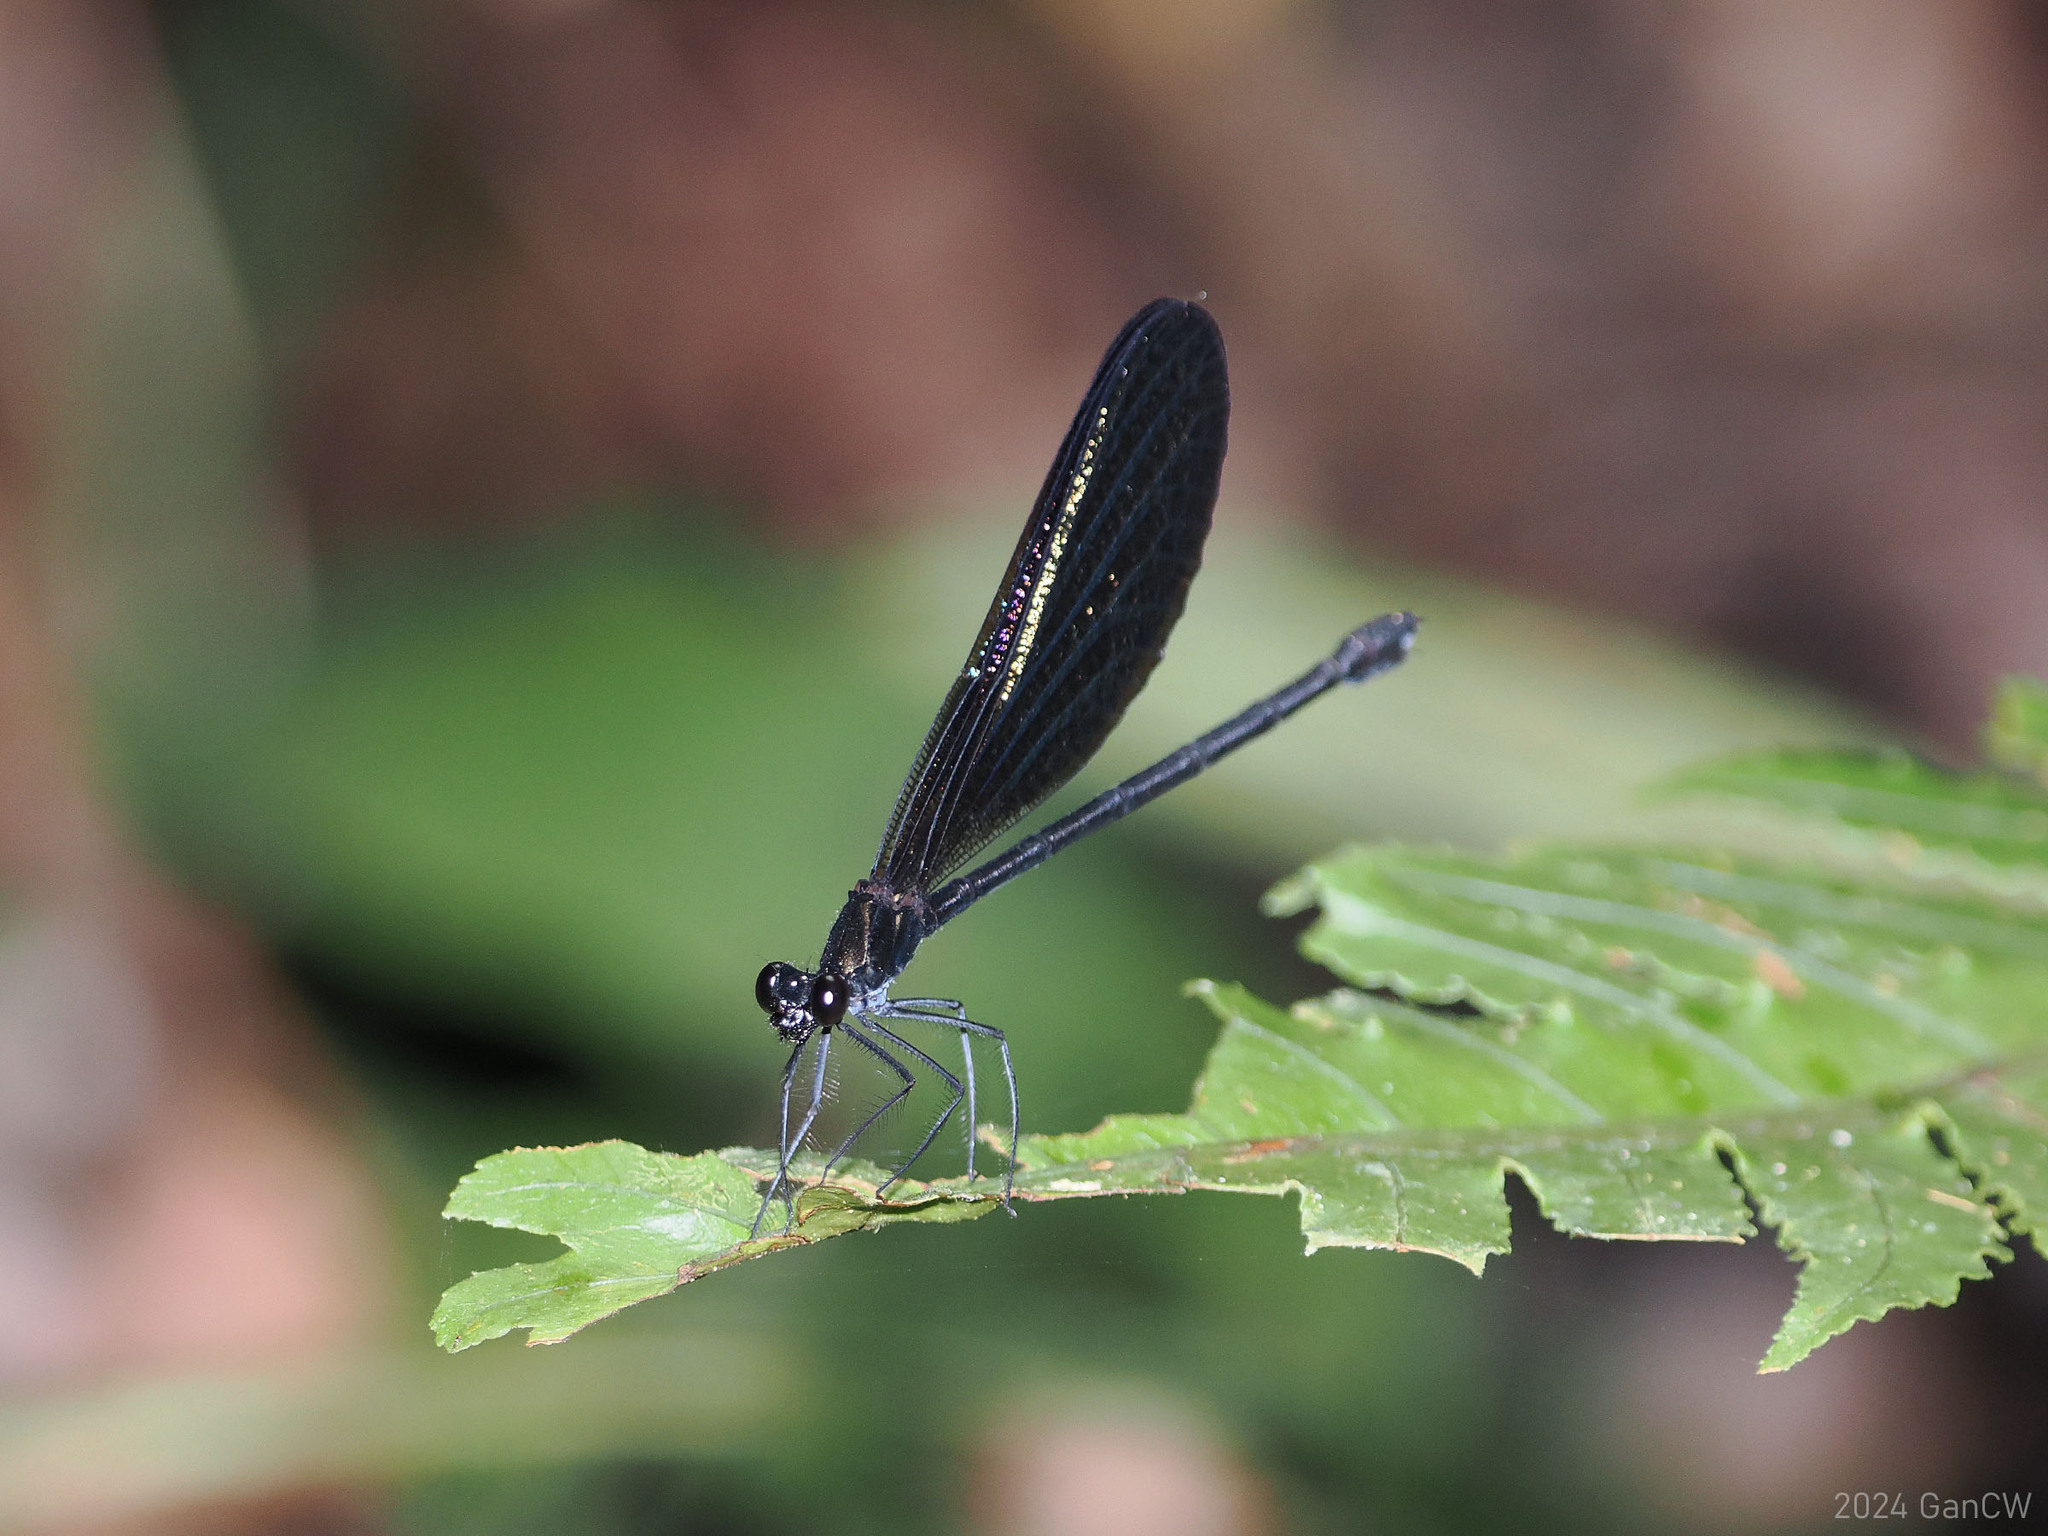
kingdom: Animalia
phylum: Arthropoda
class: Insecta
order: Odonata
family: Calopterygidae
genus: Vestalis
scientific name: Vestalis melania
